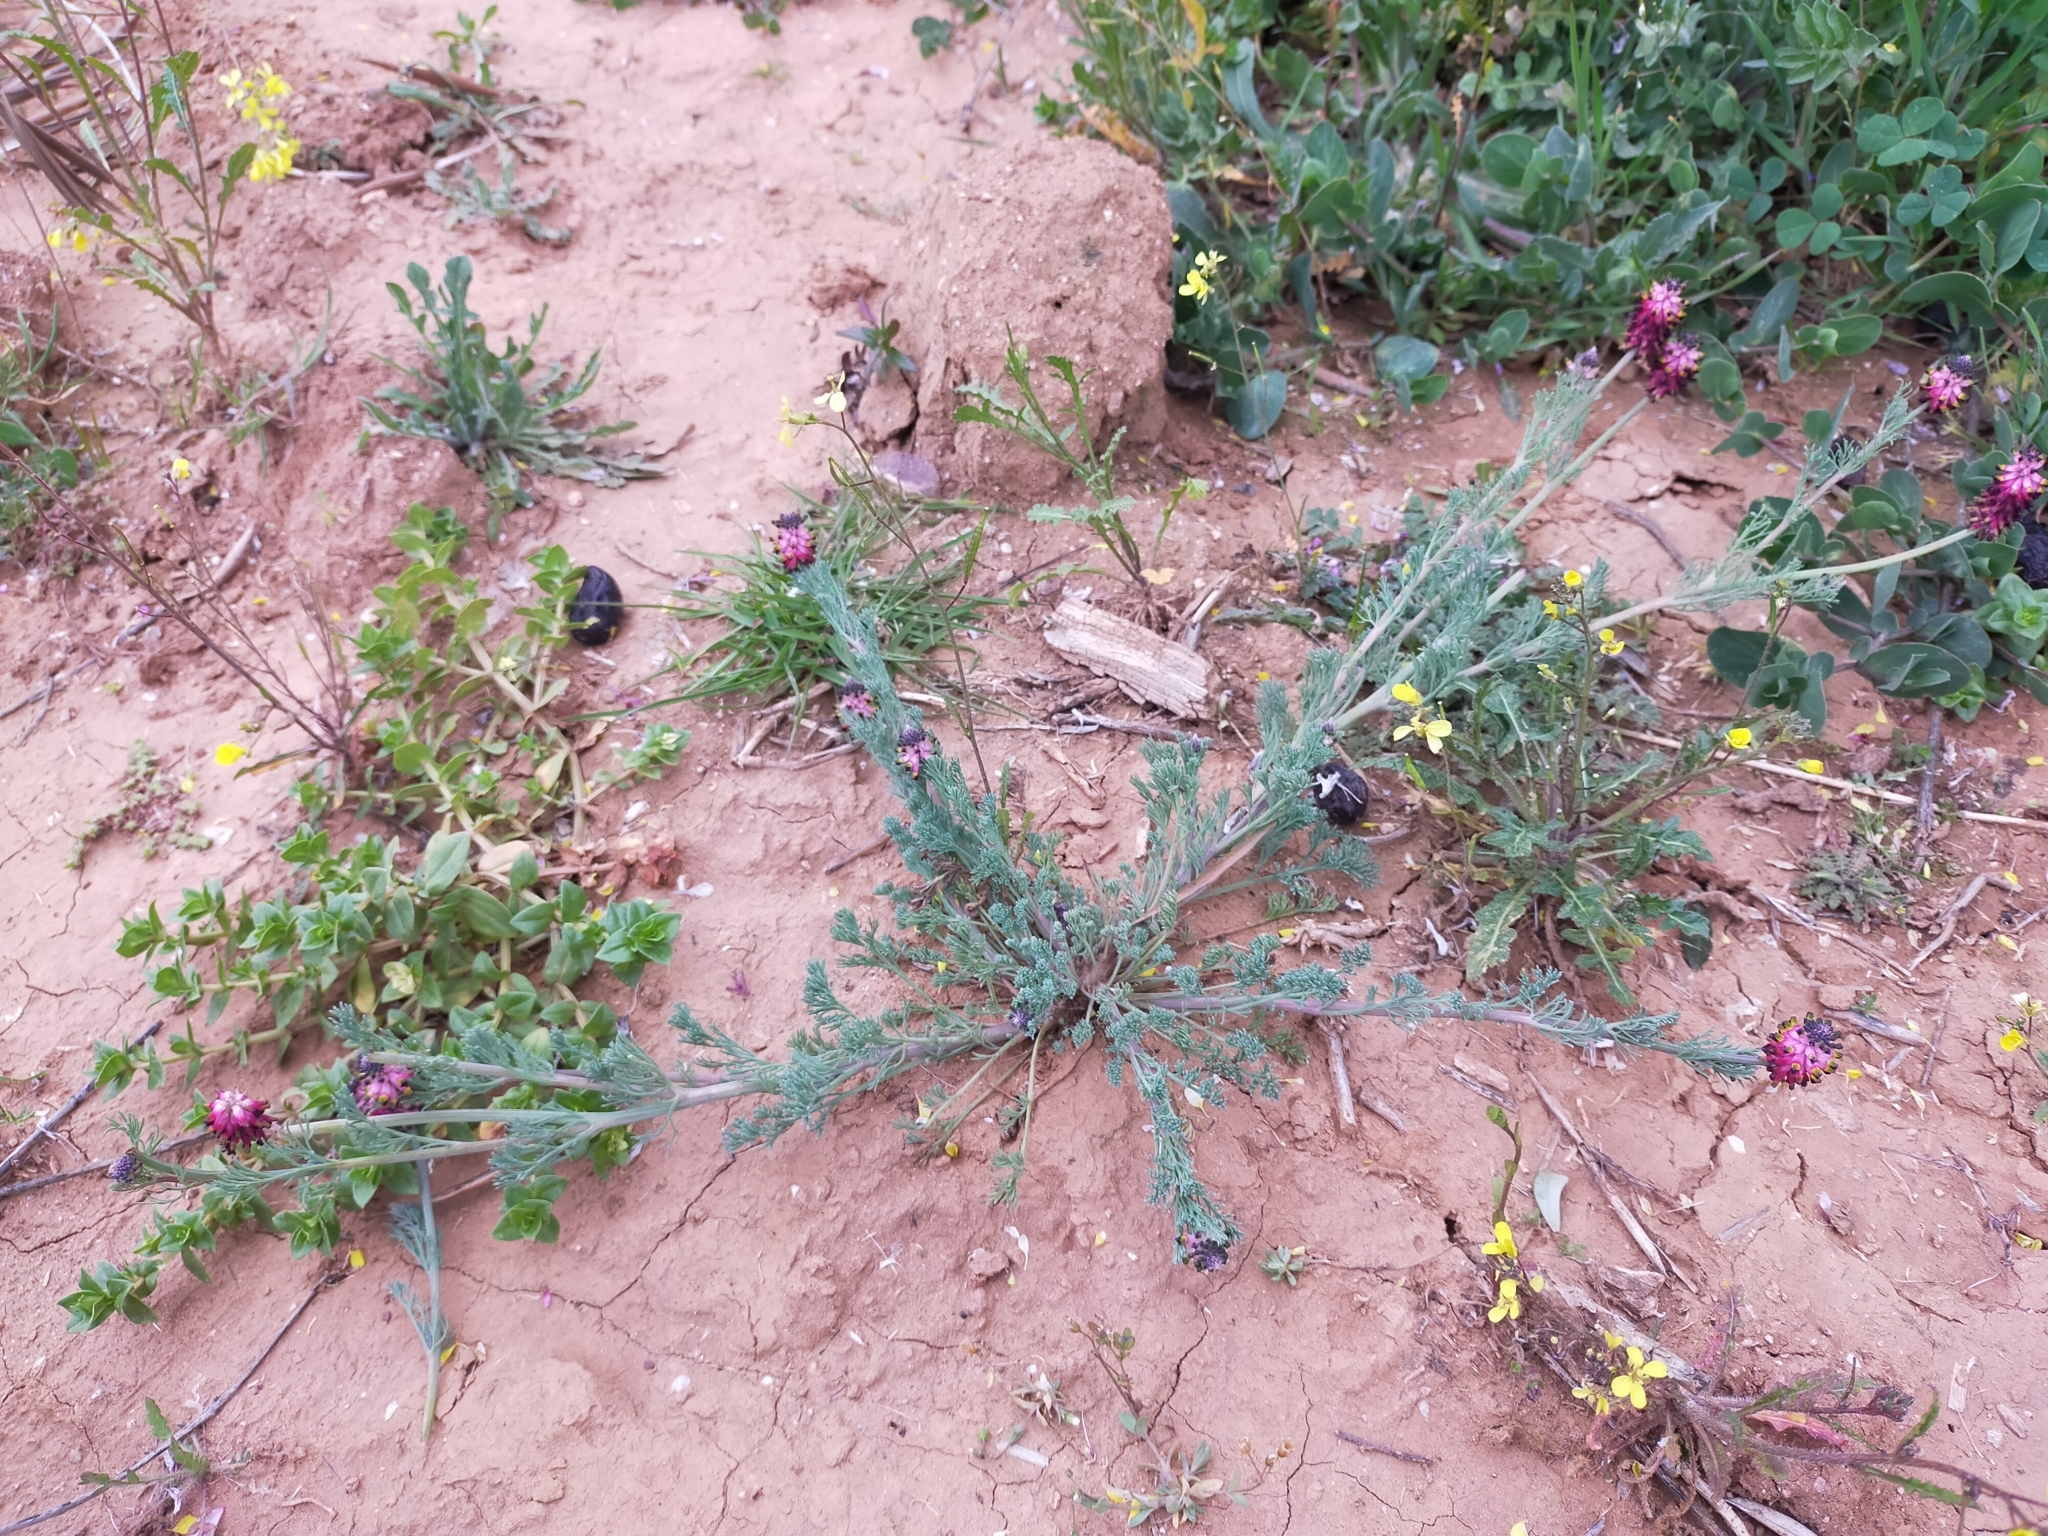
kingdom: Plantae
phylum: Tracheophyta
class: Magnoliopsida
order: Ranunculales
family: Papaveraceae
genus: Platycapnos
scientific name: Platycapnos spicata
